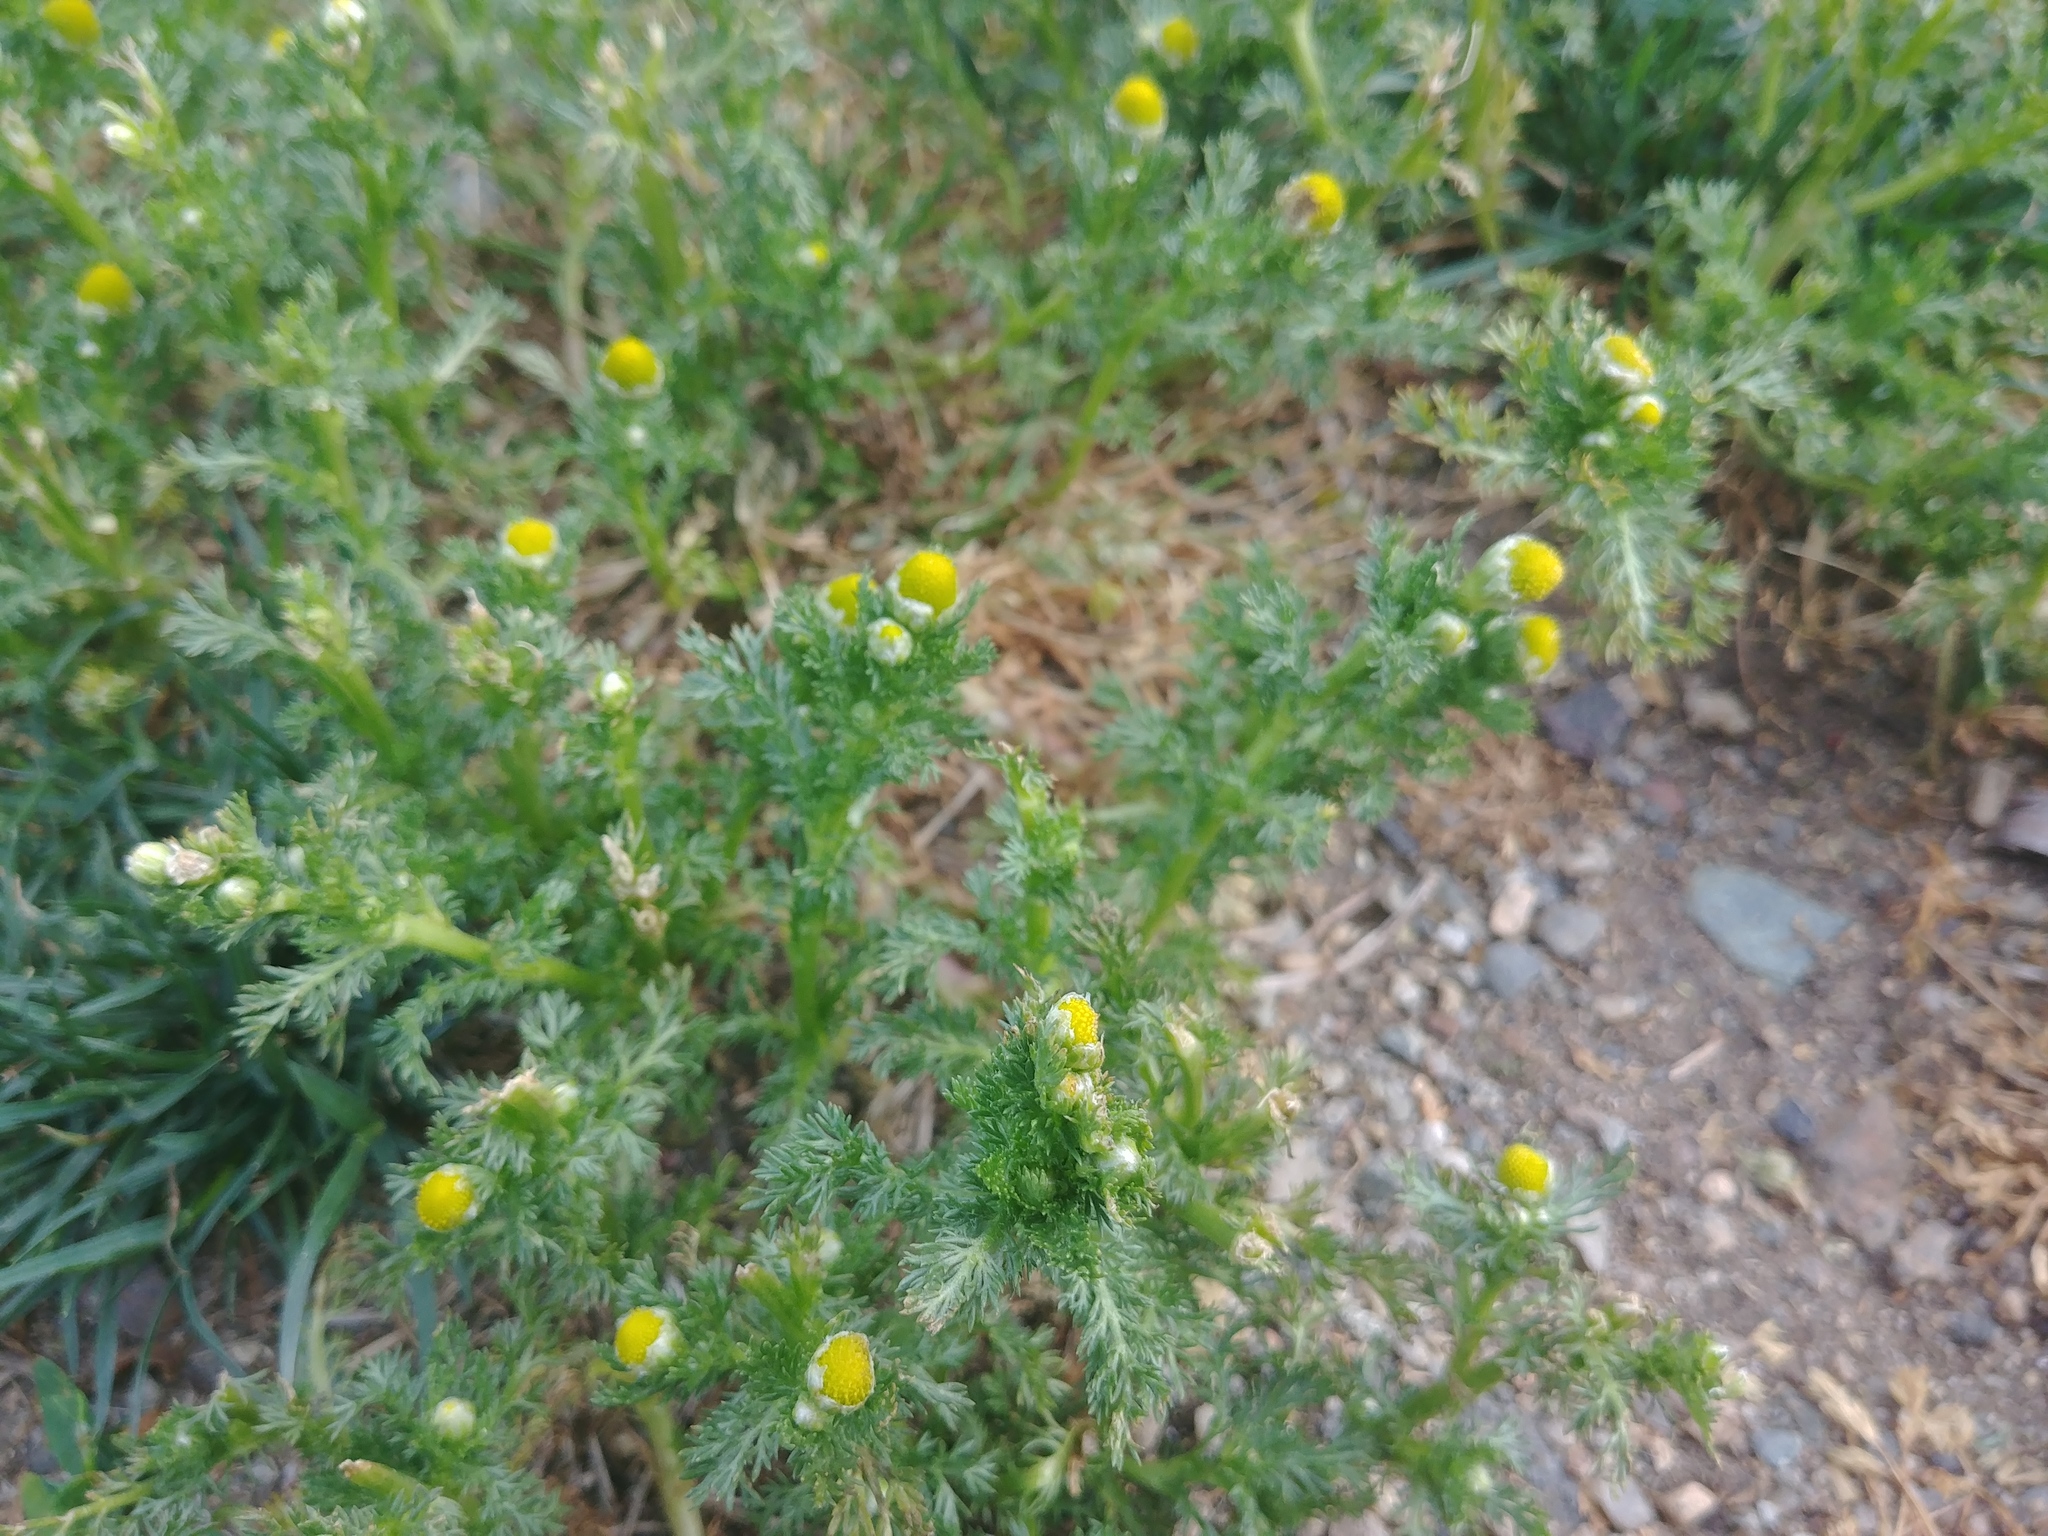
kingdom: Plantae
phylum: Tracheophyta
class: Magnoliopsida
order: Asterales
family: Asteraceae
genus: Matricaria
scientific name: Matricaria discoidea
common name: Disc mayweed
